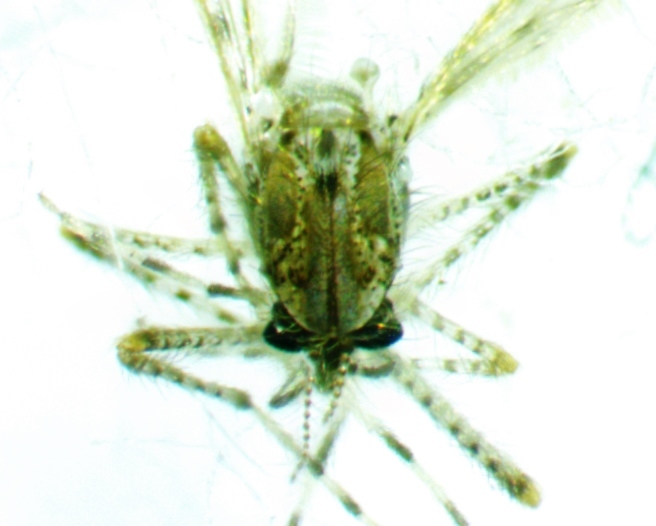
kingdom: Animalia
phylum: Arthropoda
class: Insecta
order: Diptera
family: Chaoboridae
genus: Chaoborus
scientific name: Chaoborus punctipennis
